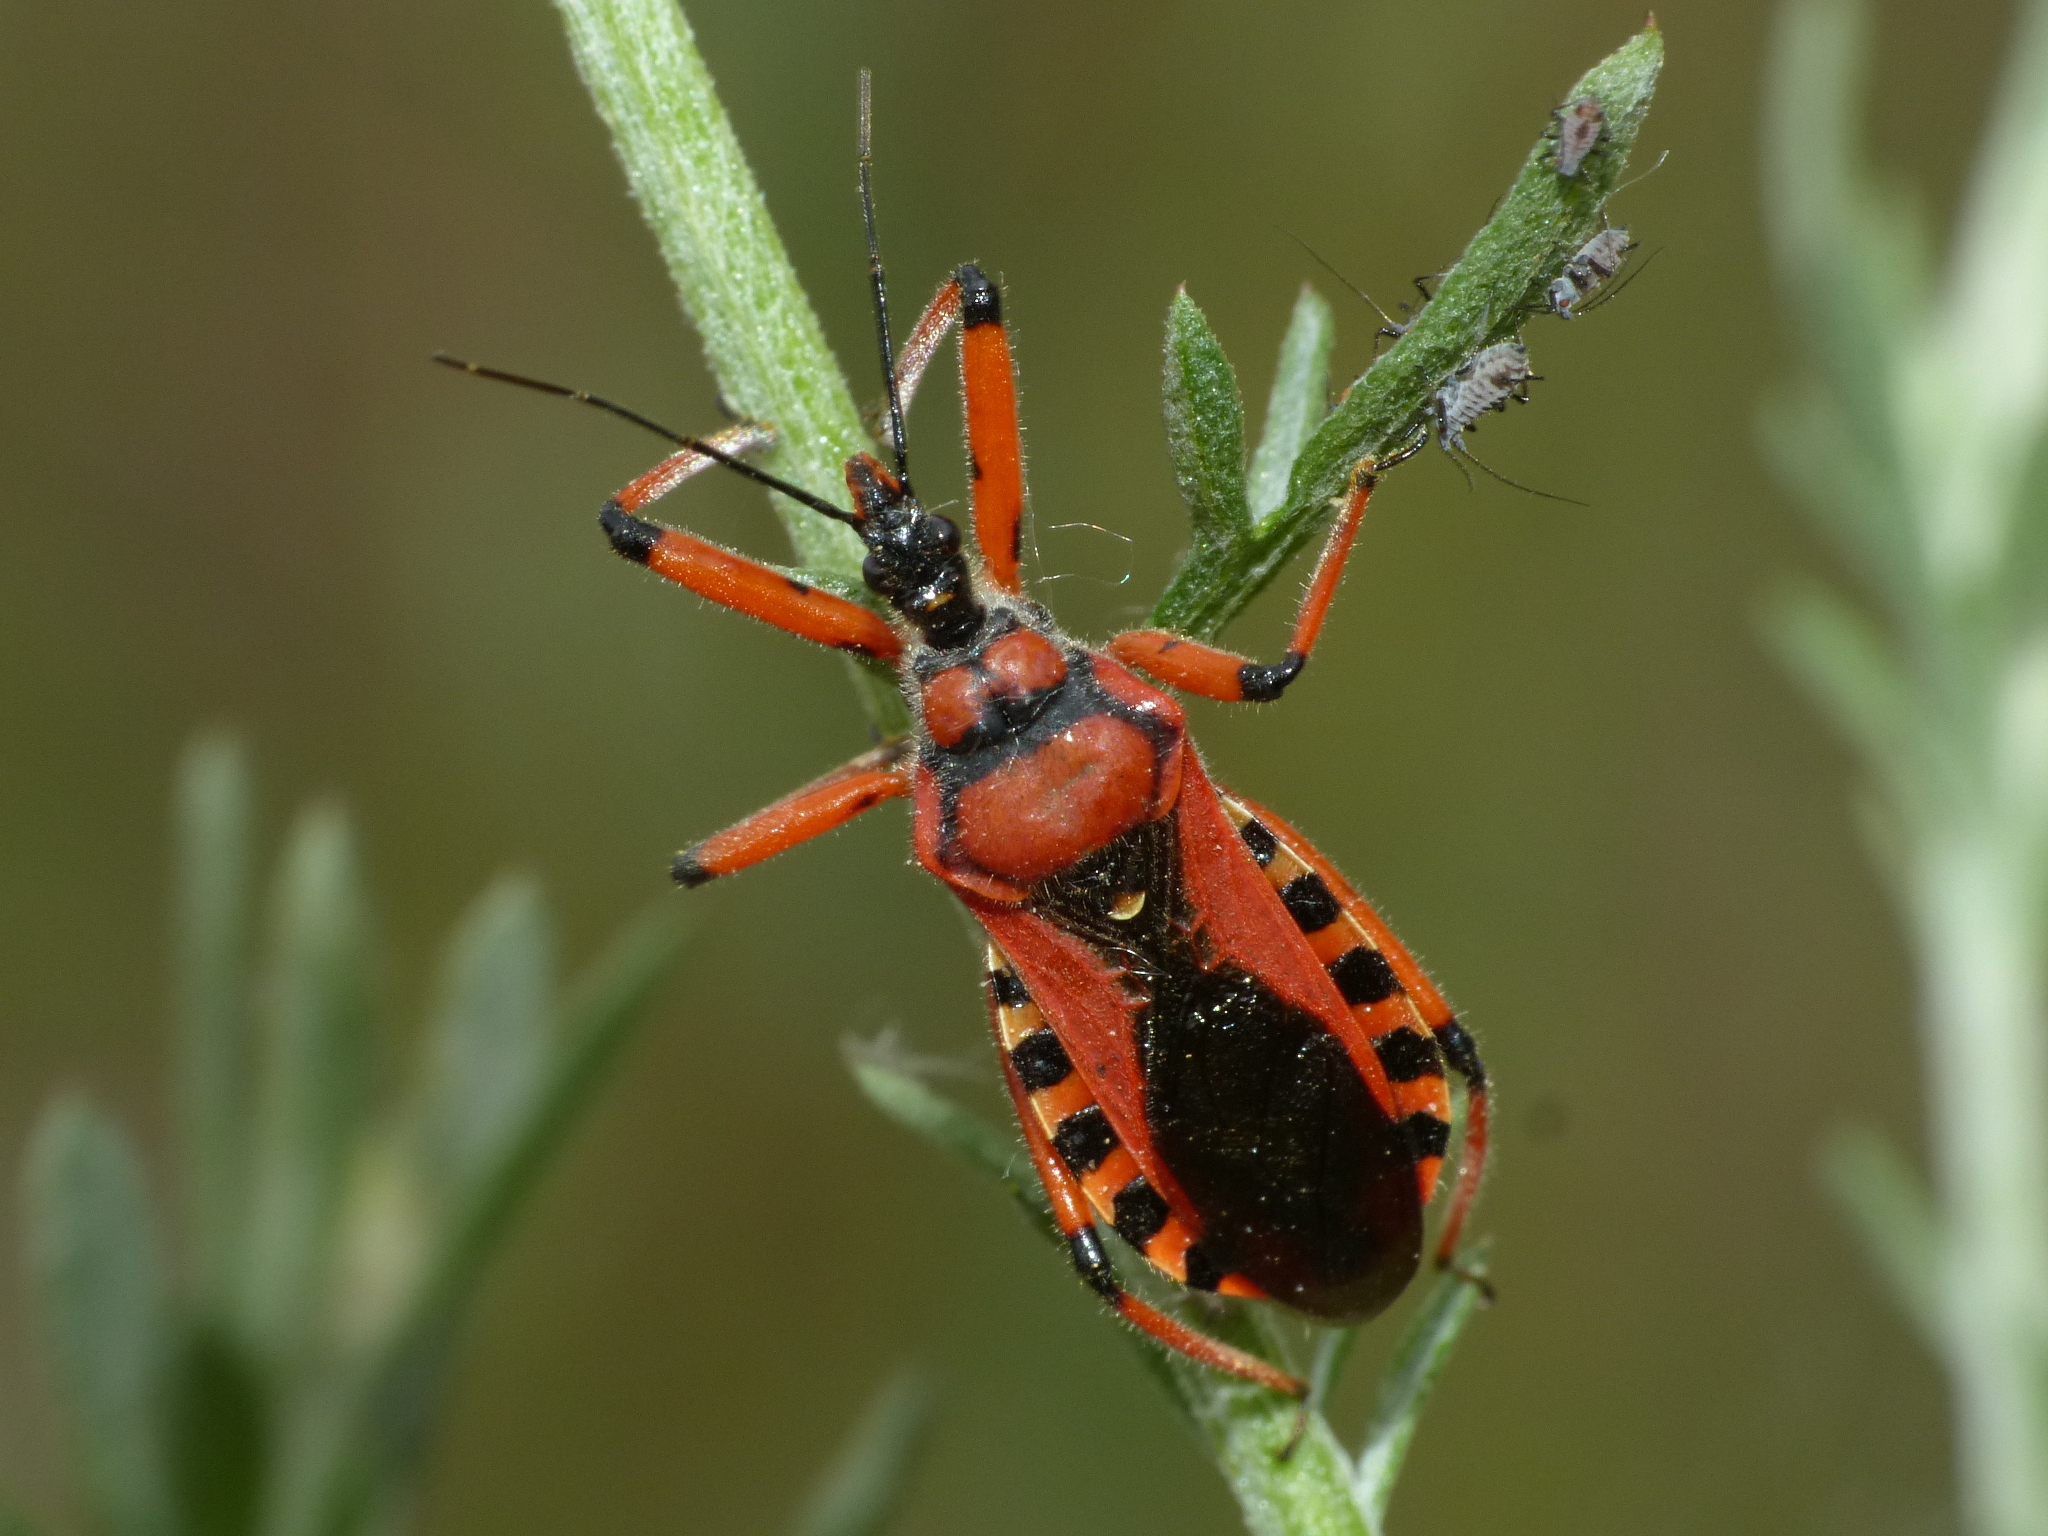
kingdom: Animalia
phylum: Arthropoda
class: Insecta
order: Hemiptera
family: Reduviidae
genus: Rhynocoris
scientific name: Rhynocoris iracundus
